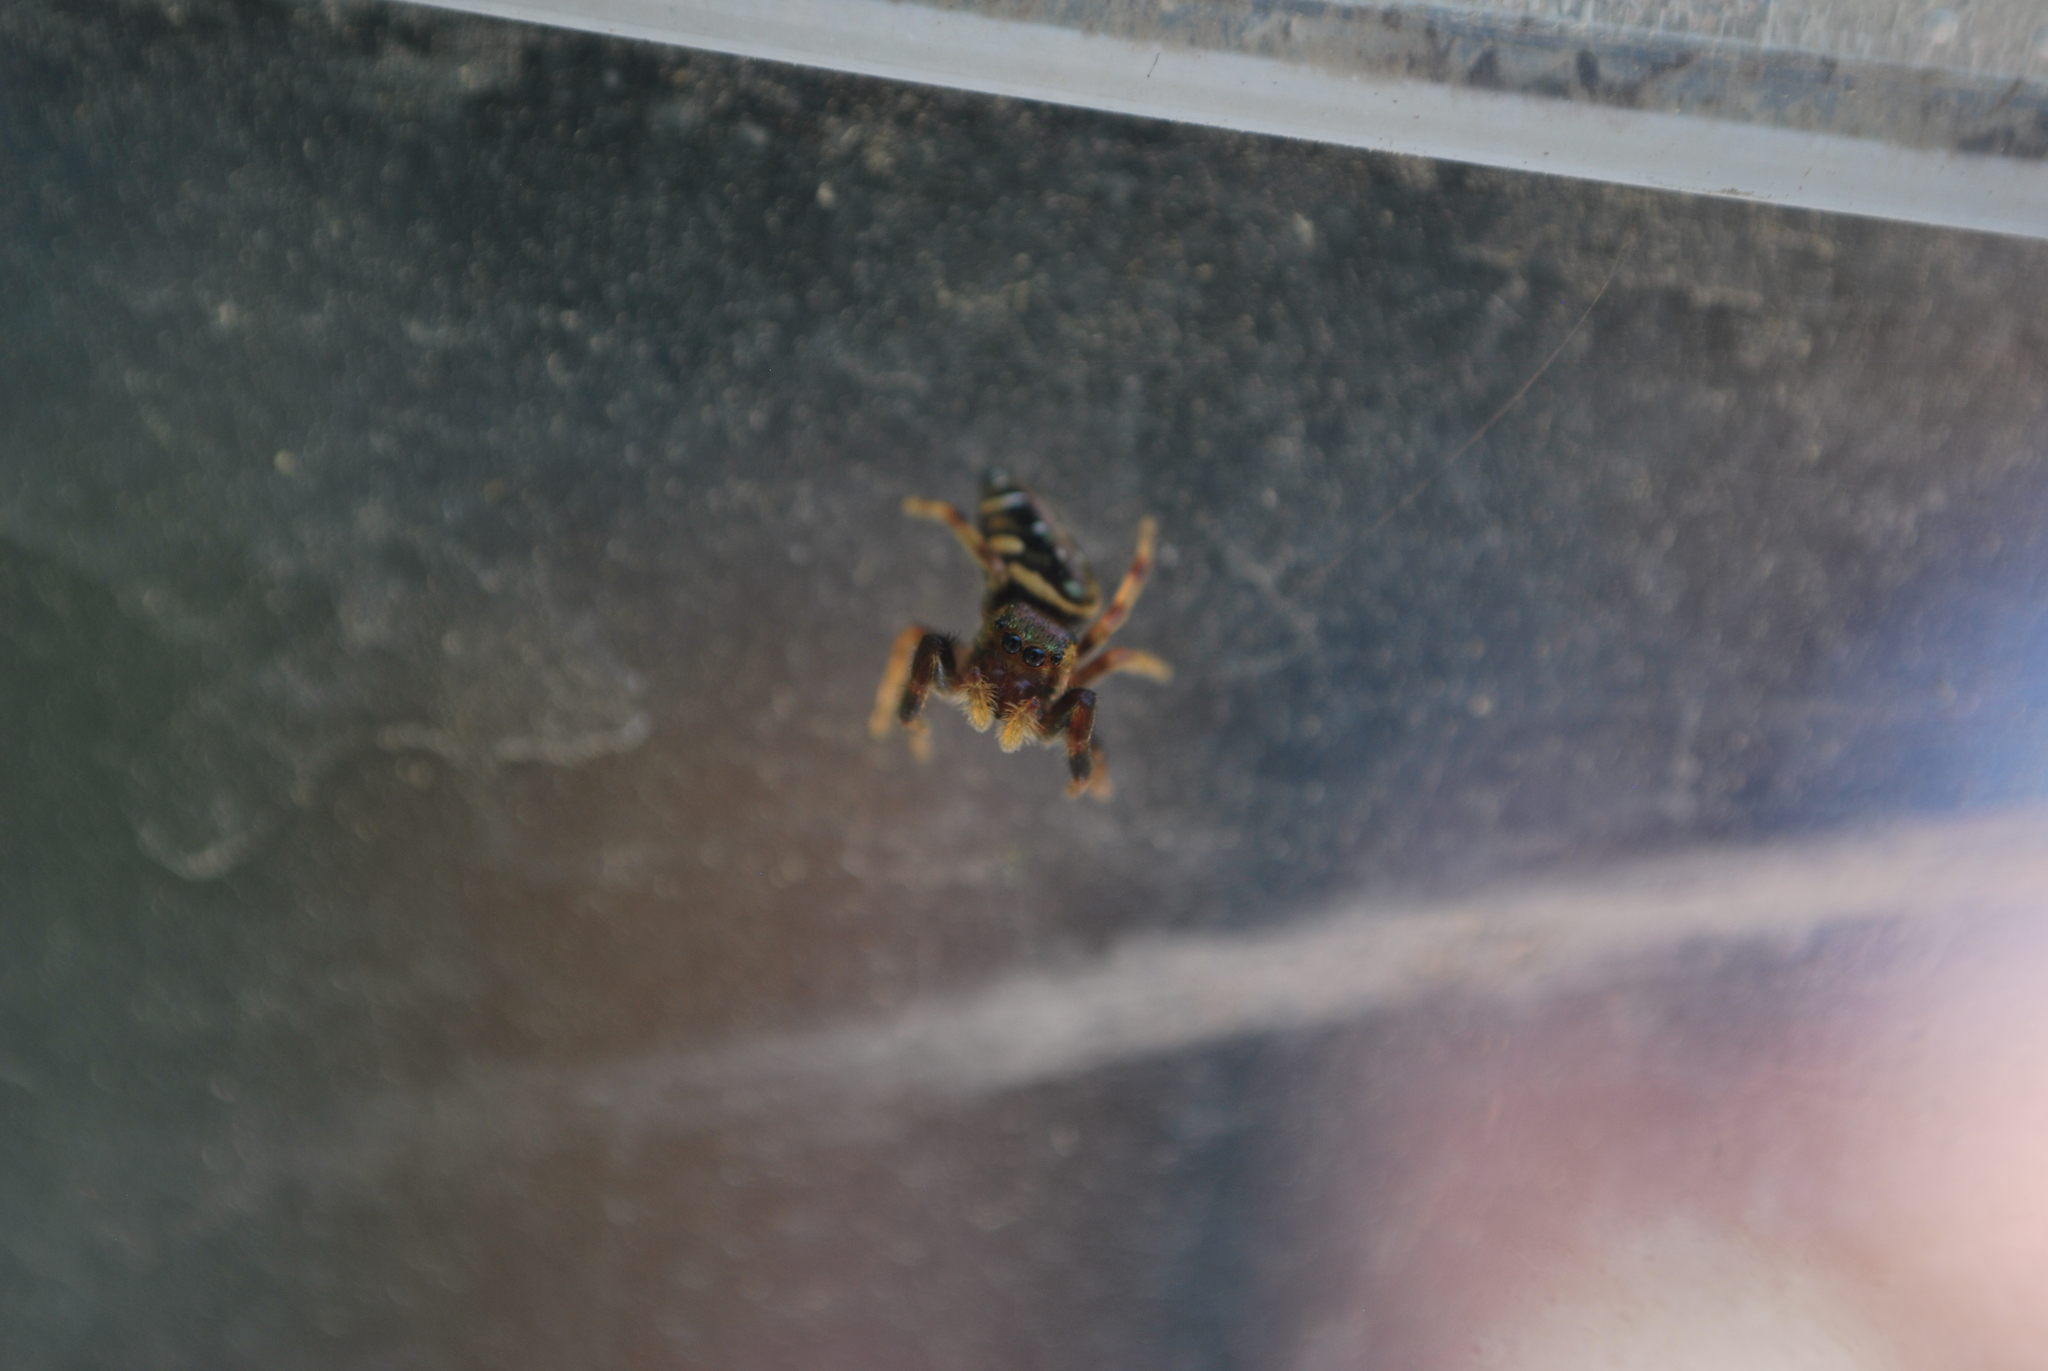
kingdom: Animalia
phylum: Arthropoda
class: Arachnida
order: Araneae
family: Salticidae
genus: Paraphidippus
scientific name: Paraphidippus aurantius
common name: Jumping spiders
